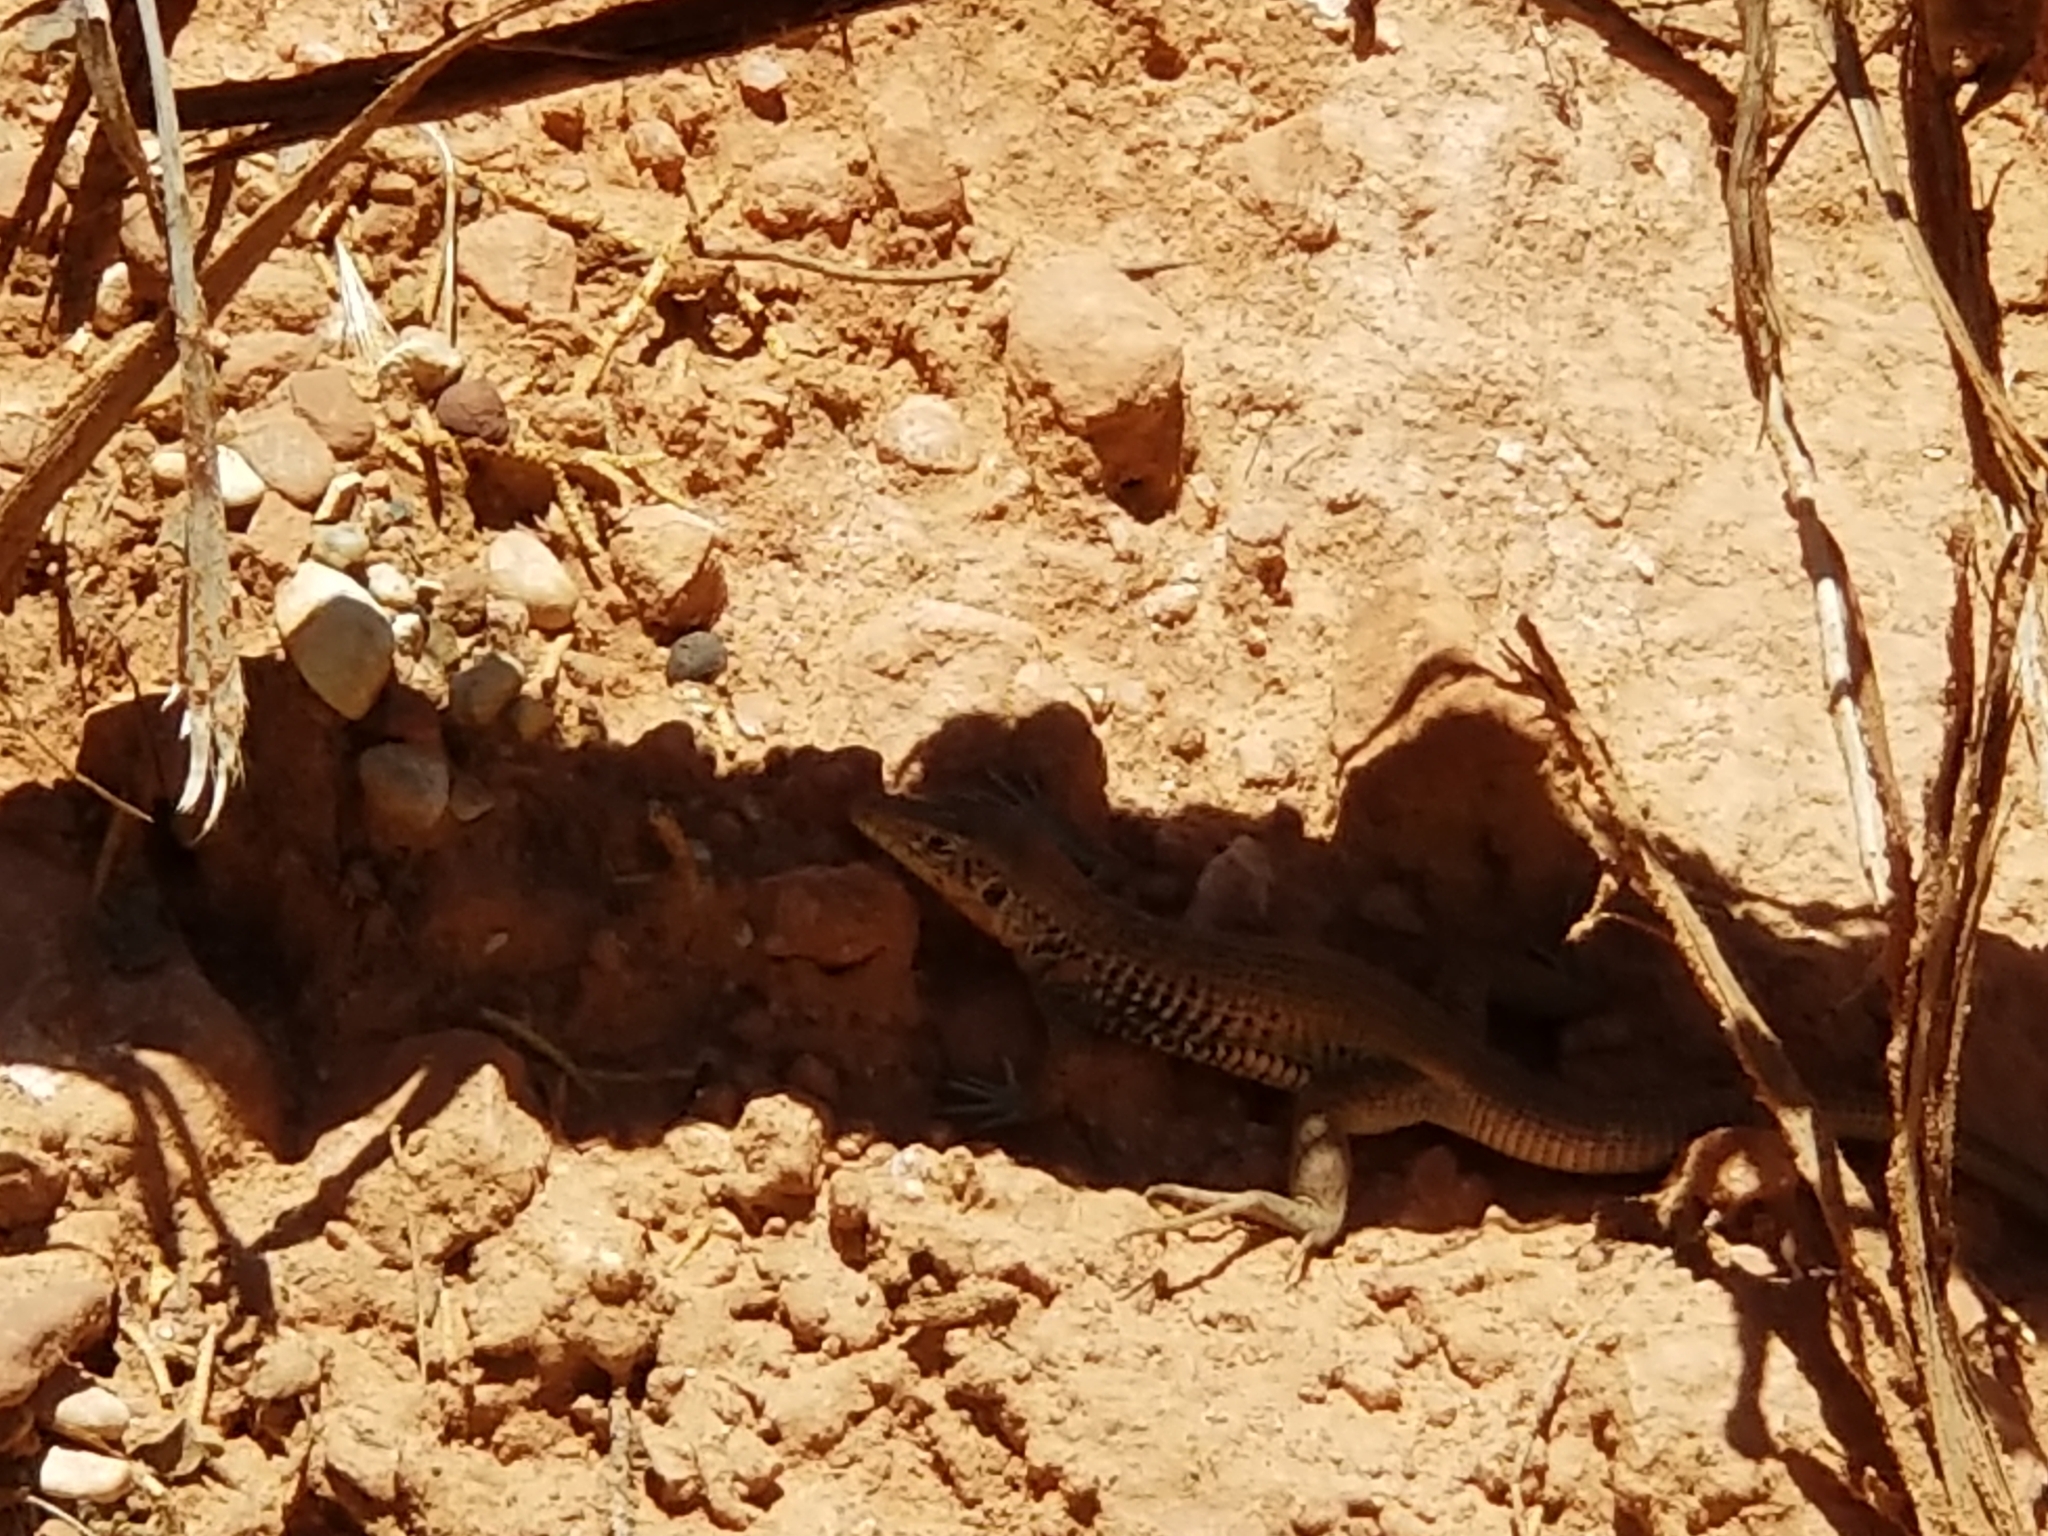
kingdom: Animalia
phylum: Chordata
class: Squamata
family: Teiidae
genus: Aspidoscelis
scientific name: Aspidoscelis tigris
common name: Tiger whiptail
